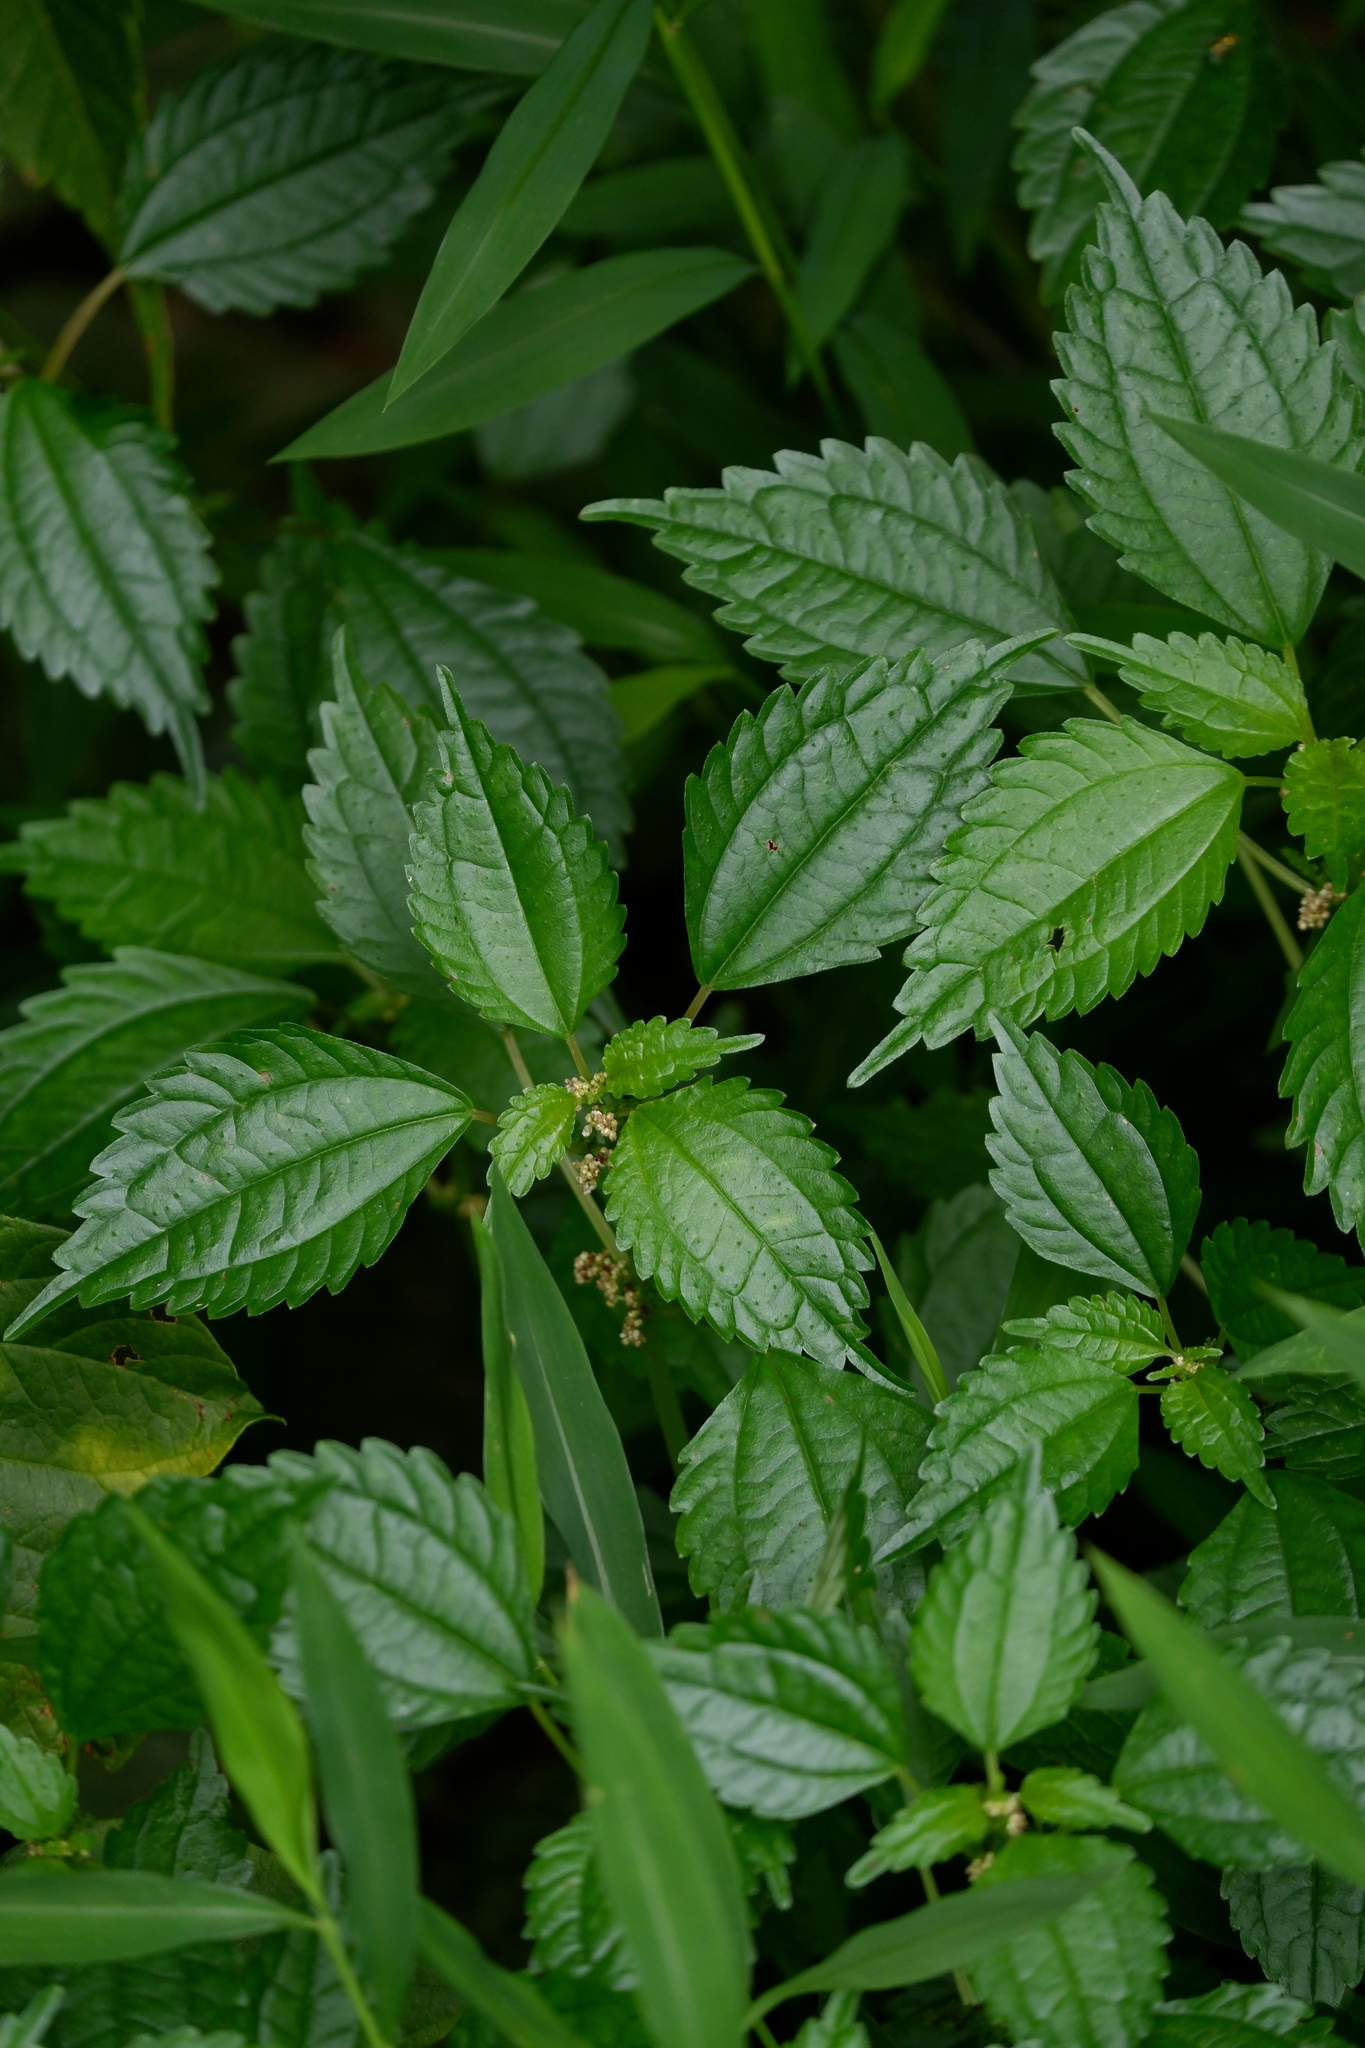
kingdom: Plantae
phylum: Tracheophyta
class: Magnoliopsida
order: Rosales
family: Urticaceae
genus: Pilea
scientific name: Pilea pumila
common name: Clearweed
